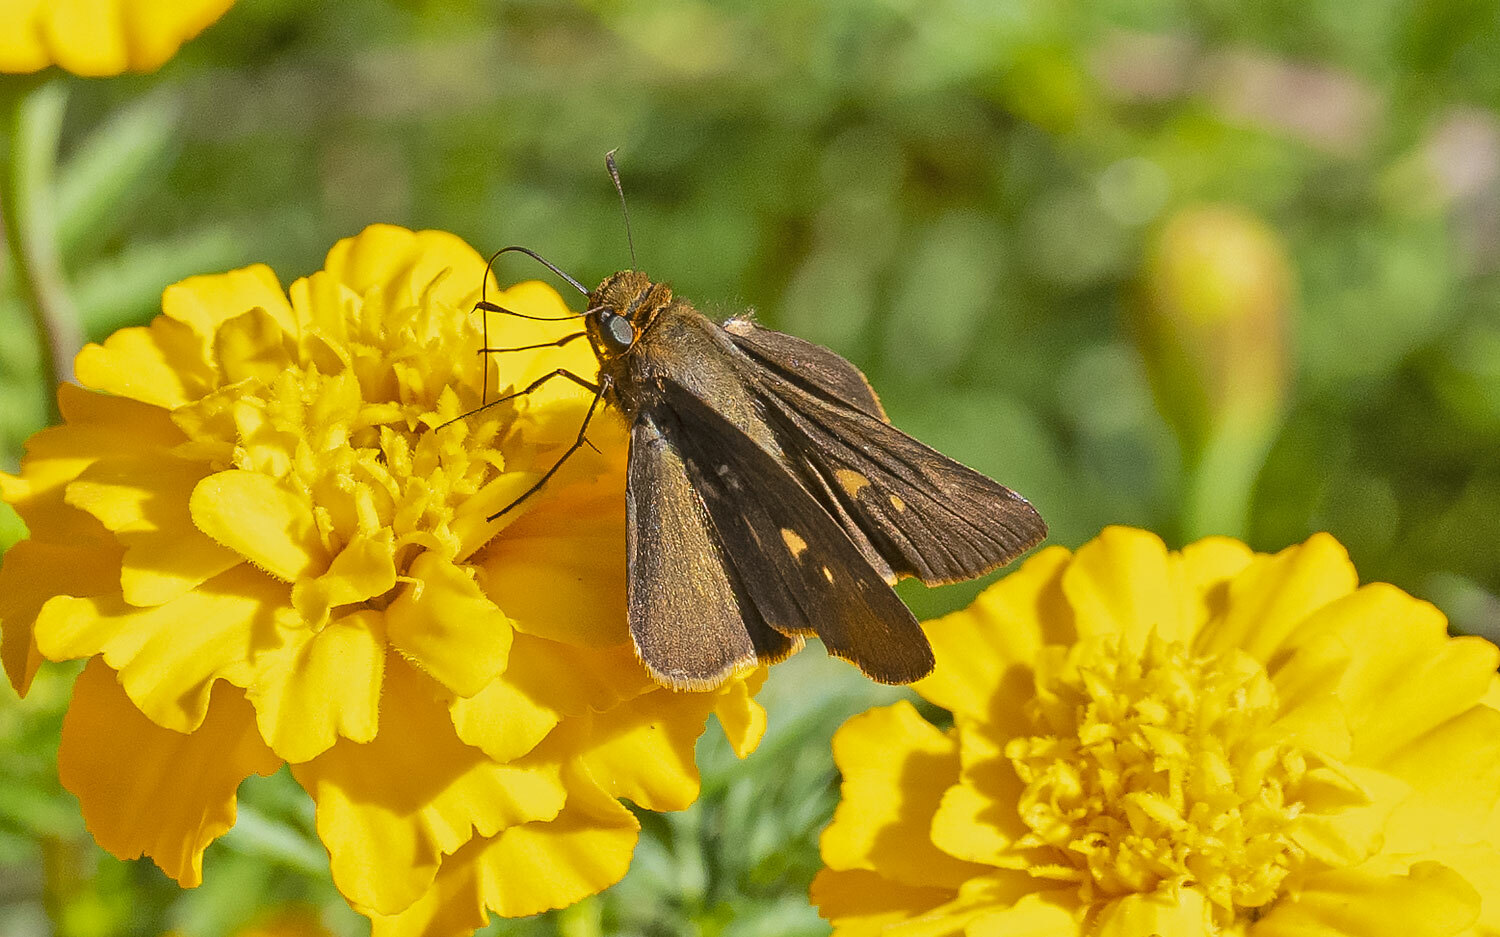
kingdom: Animalia
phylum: Arthropoda
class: Insecta
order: Lepidoptera
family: Hesperiidae
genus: Panoquina
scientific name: Panoquina ocola
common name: Ocola skipper
